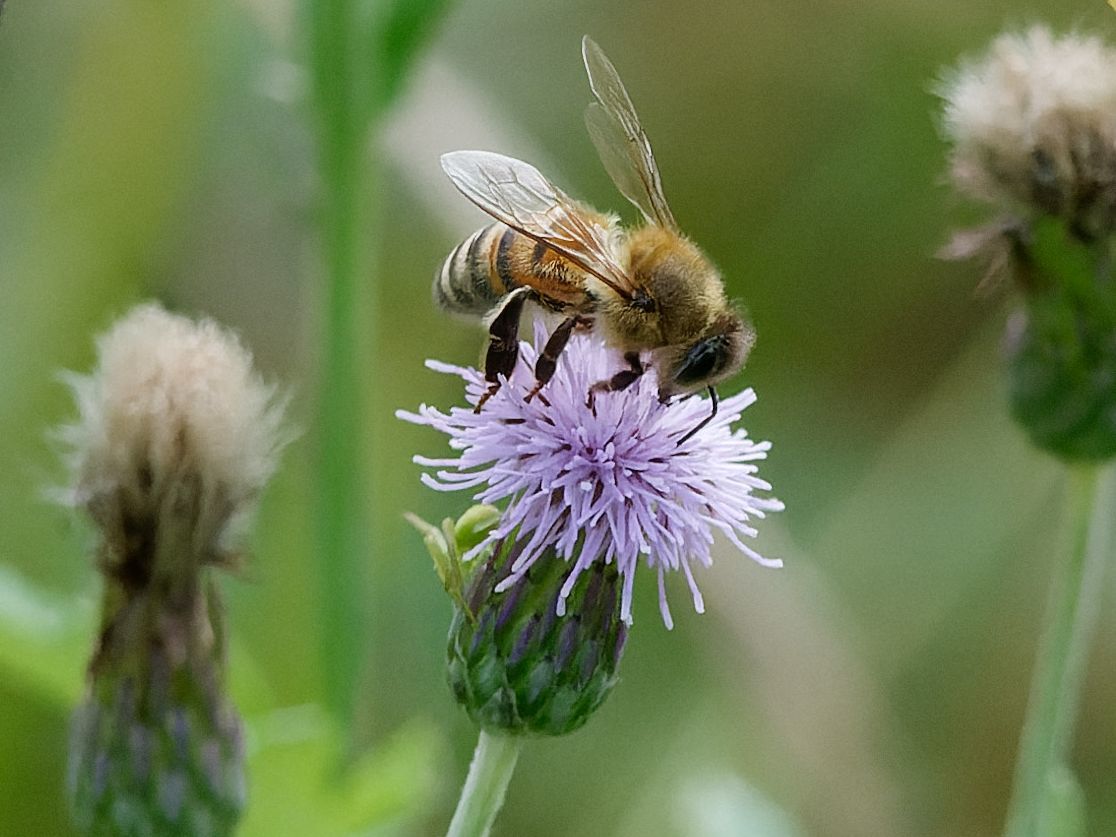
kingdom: Animalia
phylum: Arthropoda
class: Insecta
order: Hymenoptera
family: Apidae
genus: Apis
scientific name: Apis mellifera
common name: Honey bee
